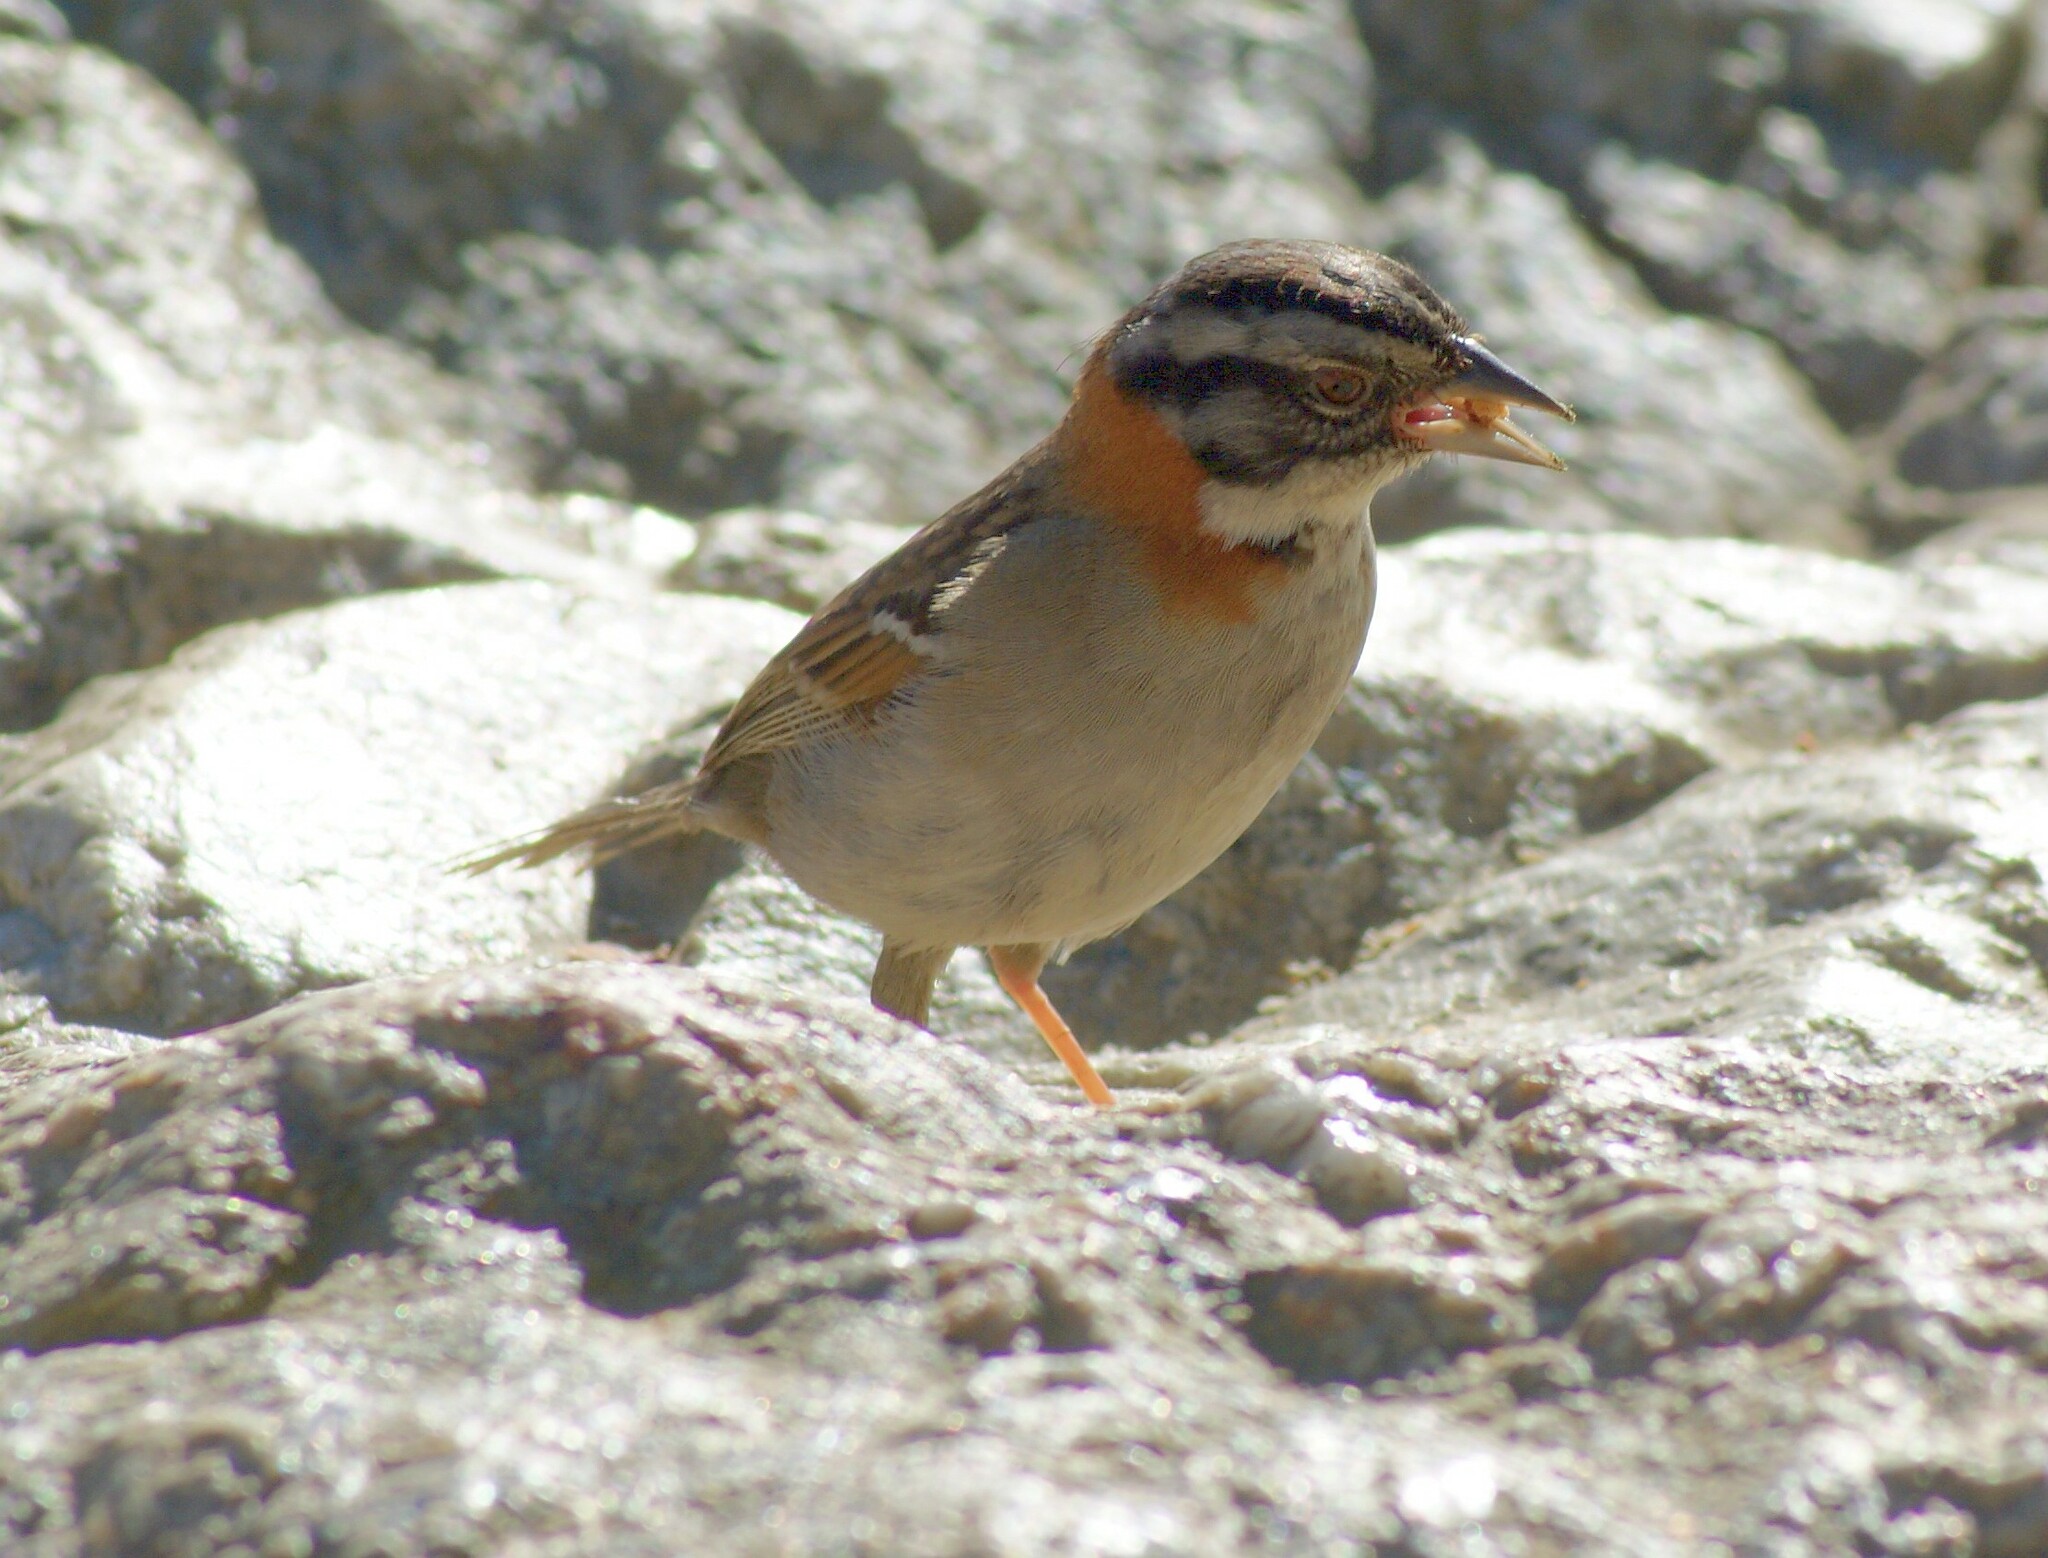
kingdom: Animalia
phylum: Chordata
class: Aves
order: Passeriformes
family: Passerellidae
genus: Zonotrichia
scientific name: Zonotrichia capensis
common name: Rufous-collared sparrow
